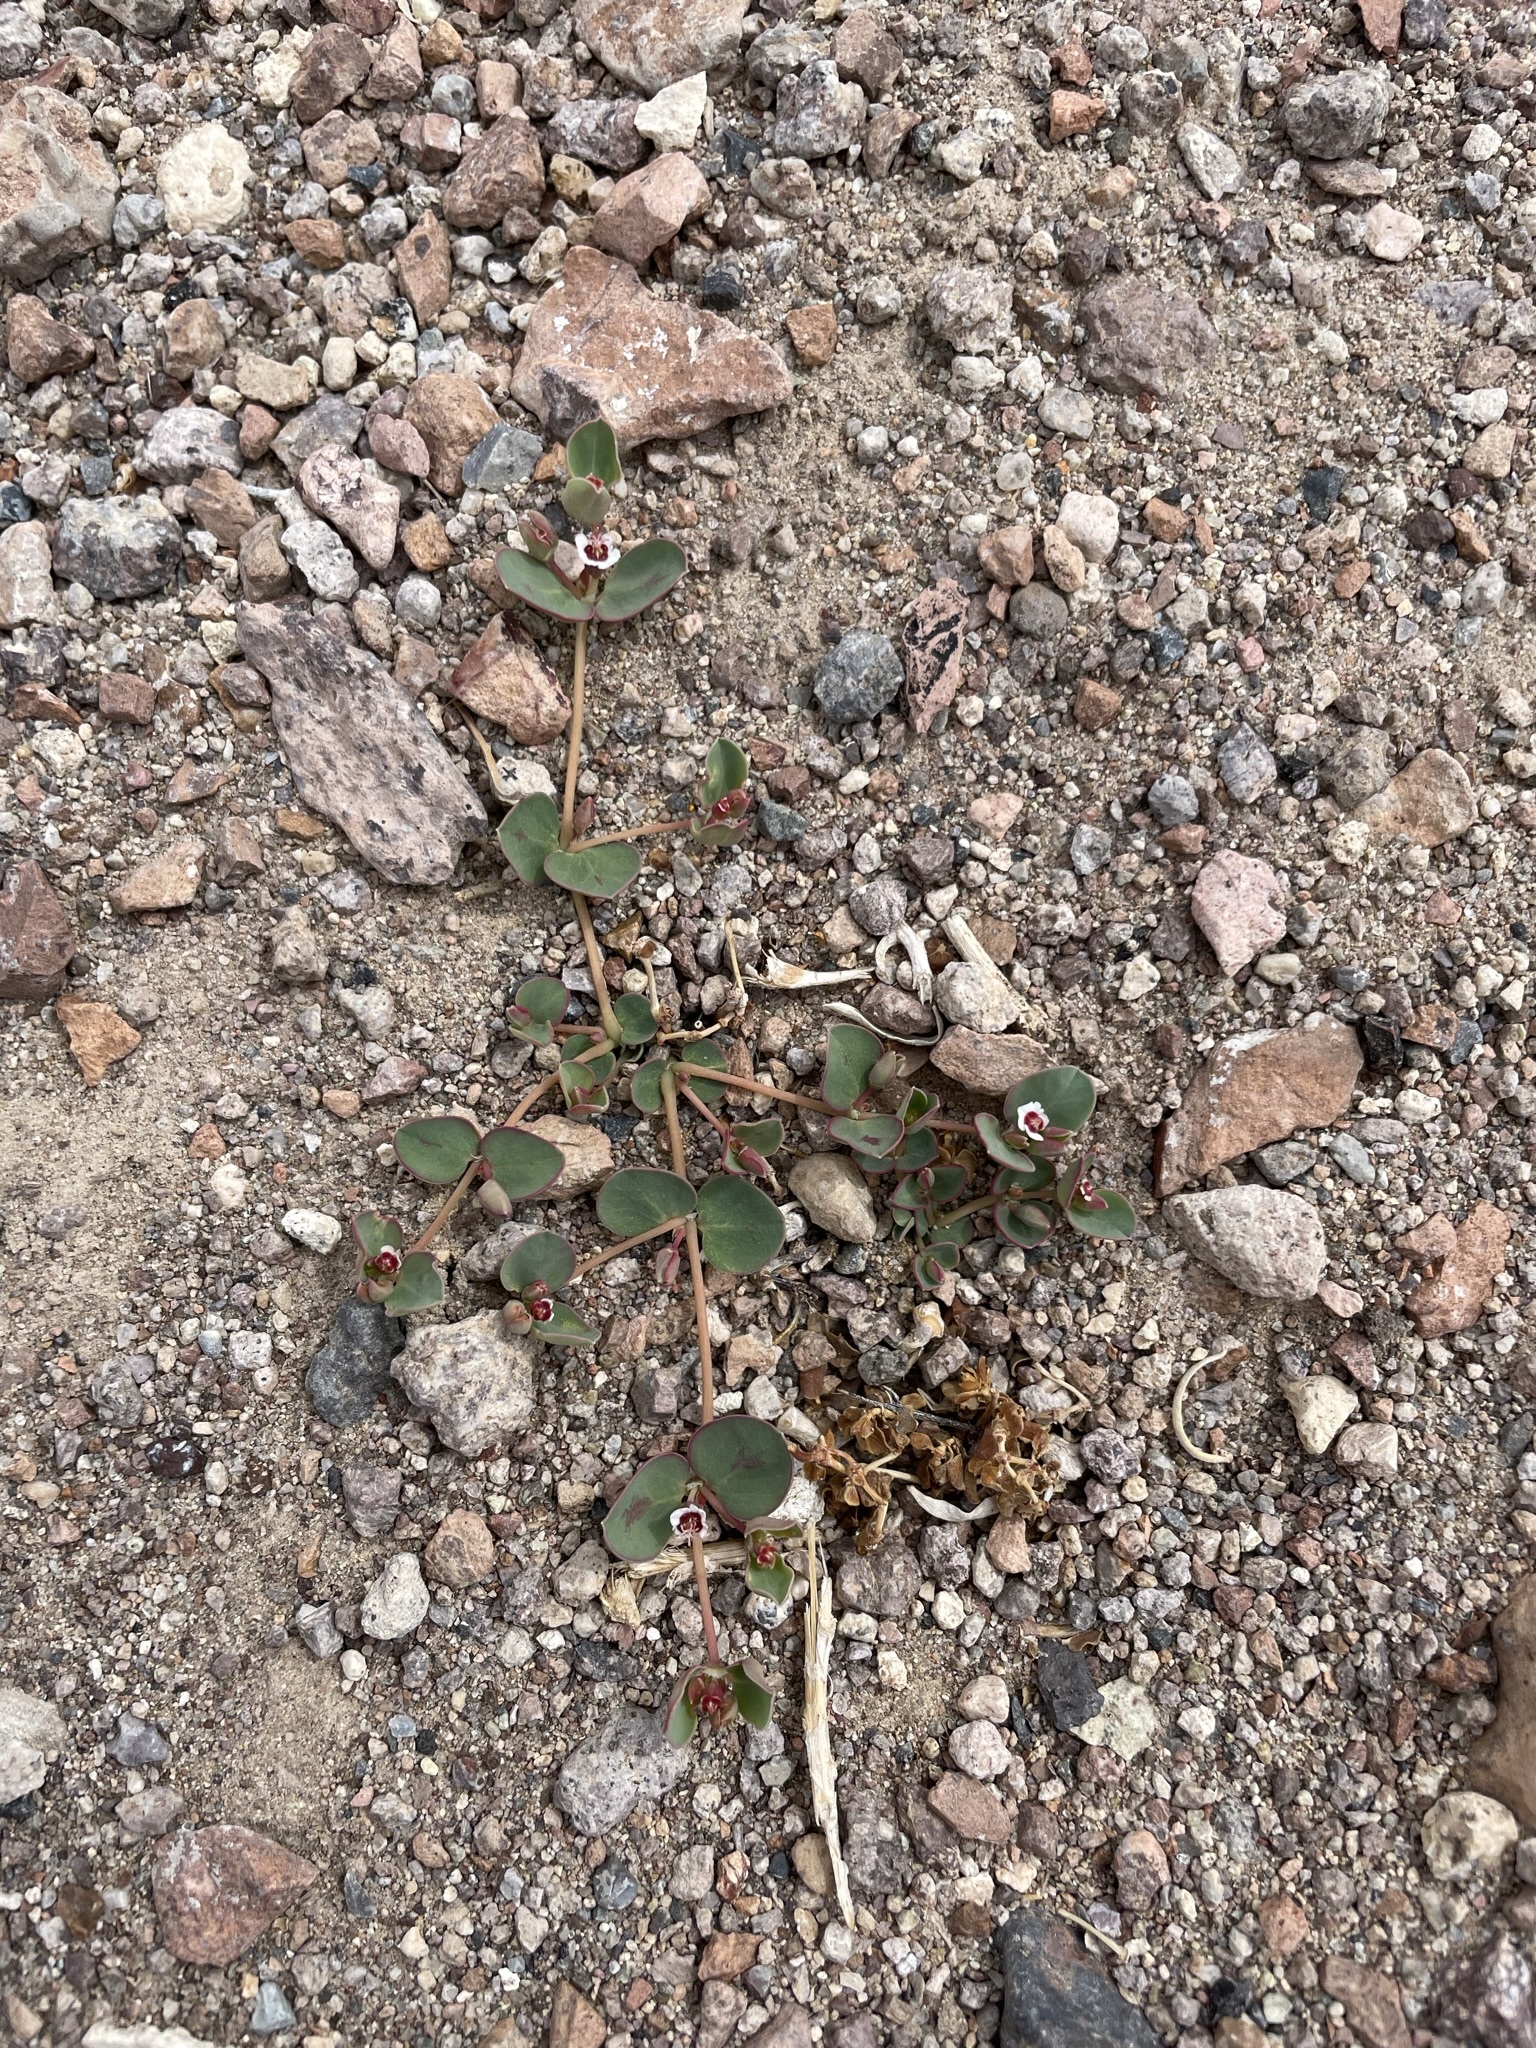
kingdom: Plantae
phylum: Tracheophyta
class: Magnoliopsida
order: Malpighiales
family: Euphorbiaceae
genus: Euphorbia
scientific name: Euphorbia albomarginata
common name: Whitemargin sandmat
